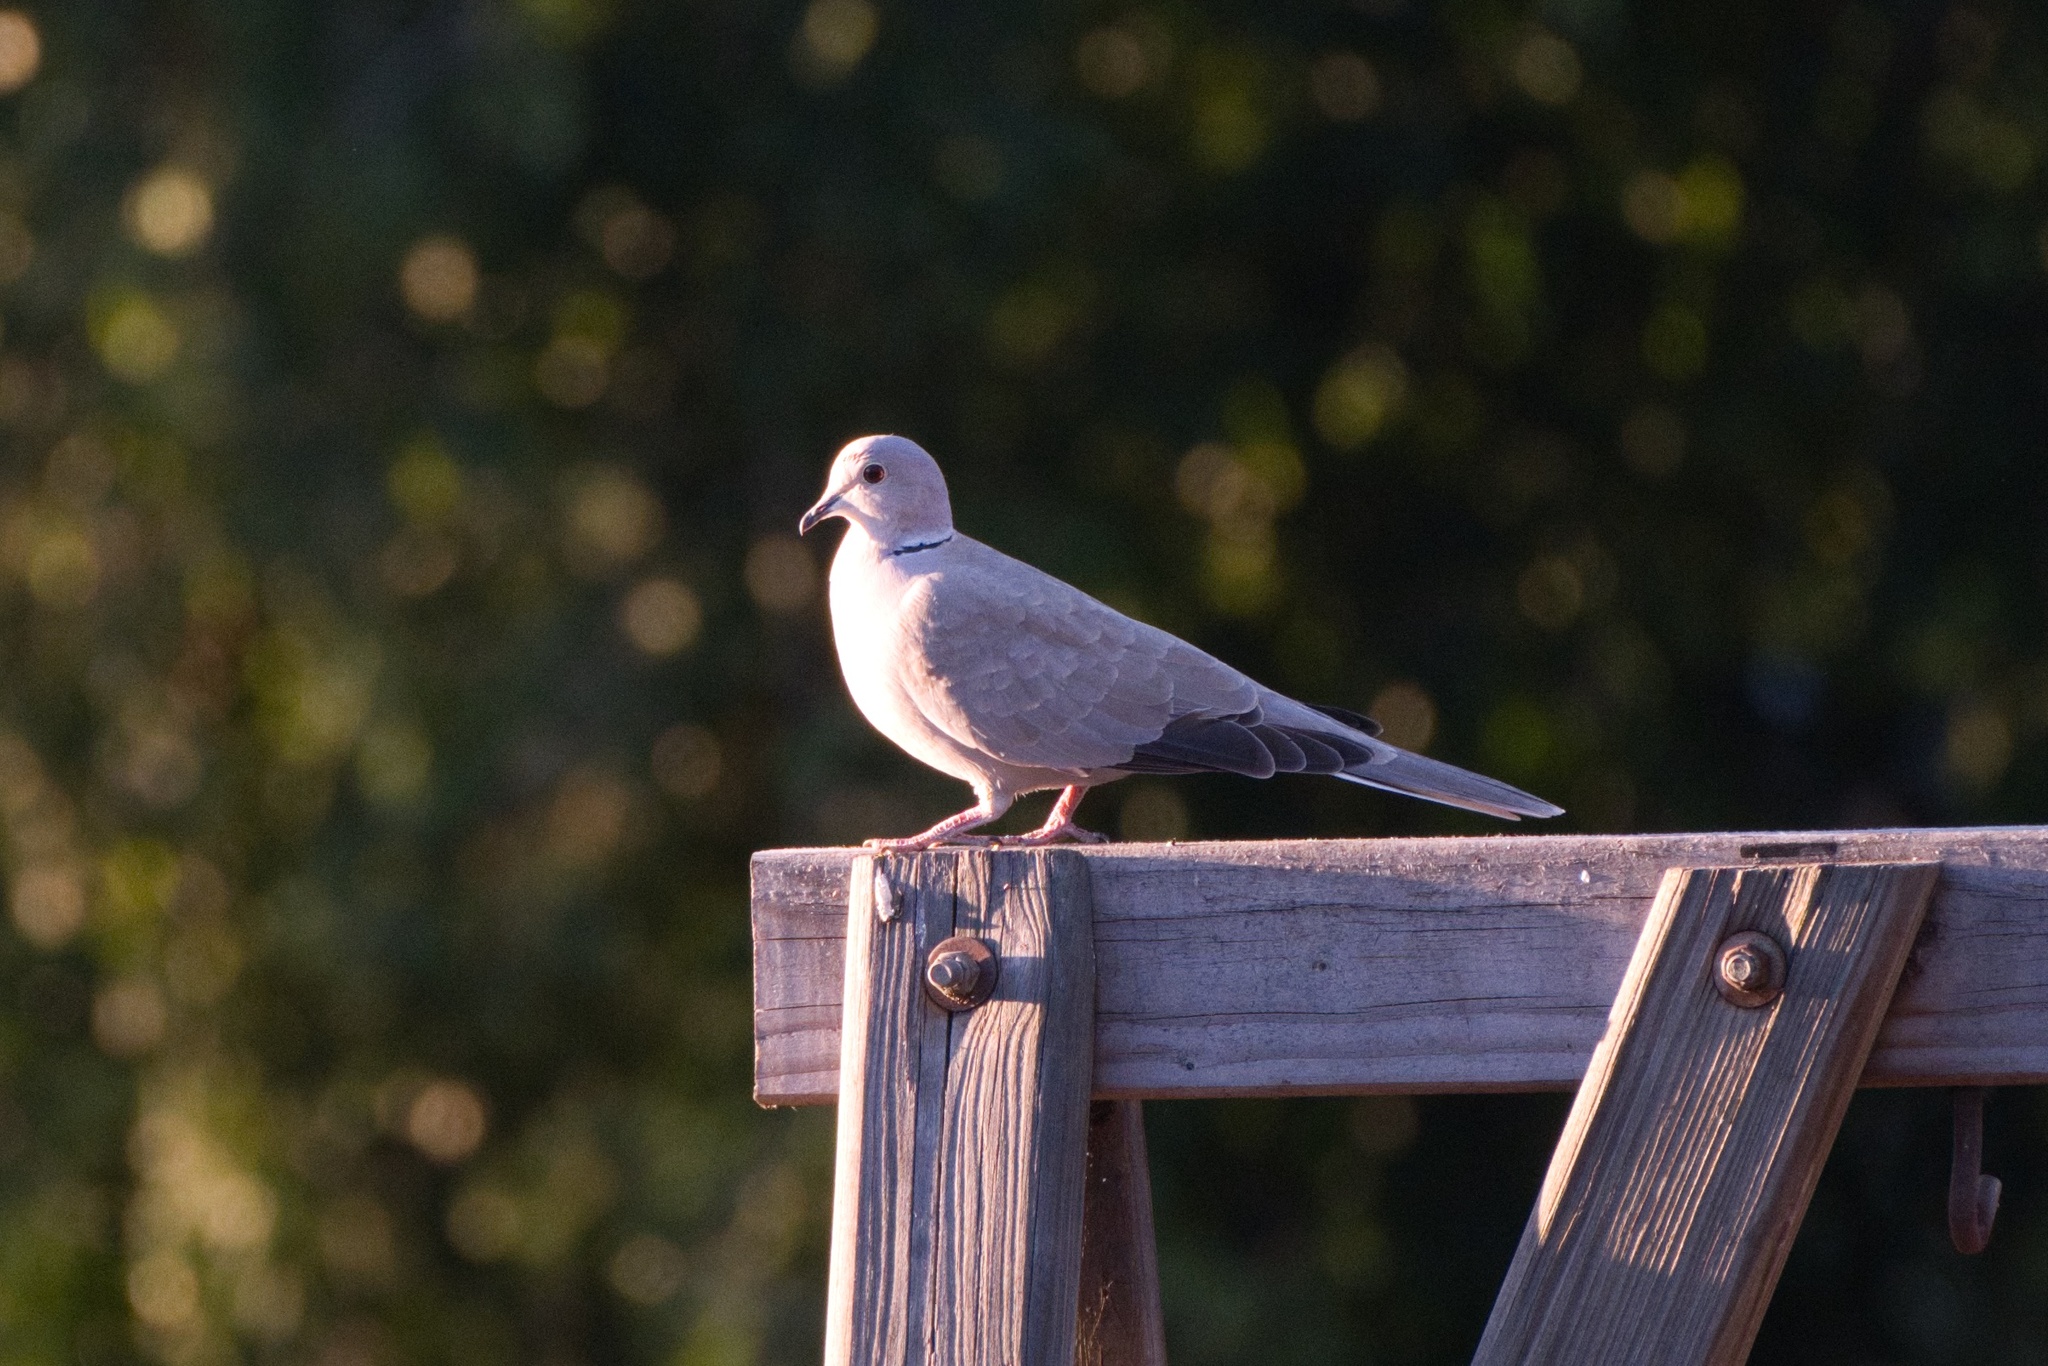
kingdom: Animalia
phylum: Chordata
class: Aves
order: Columbiformes
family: Columbidae
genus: Streptopelia
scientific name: Streptopelia decaocto
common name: Eurasian collared dove
